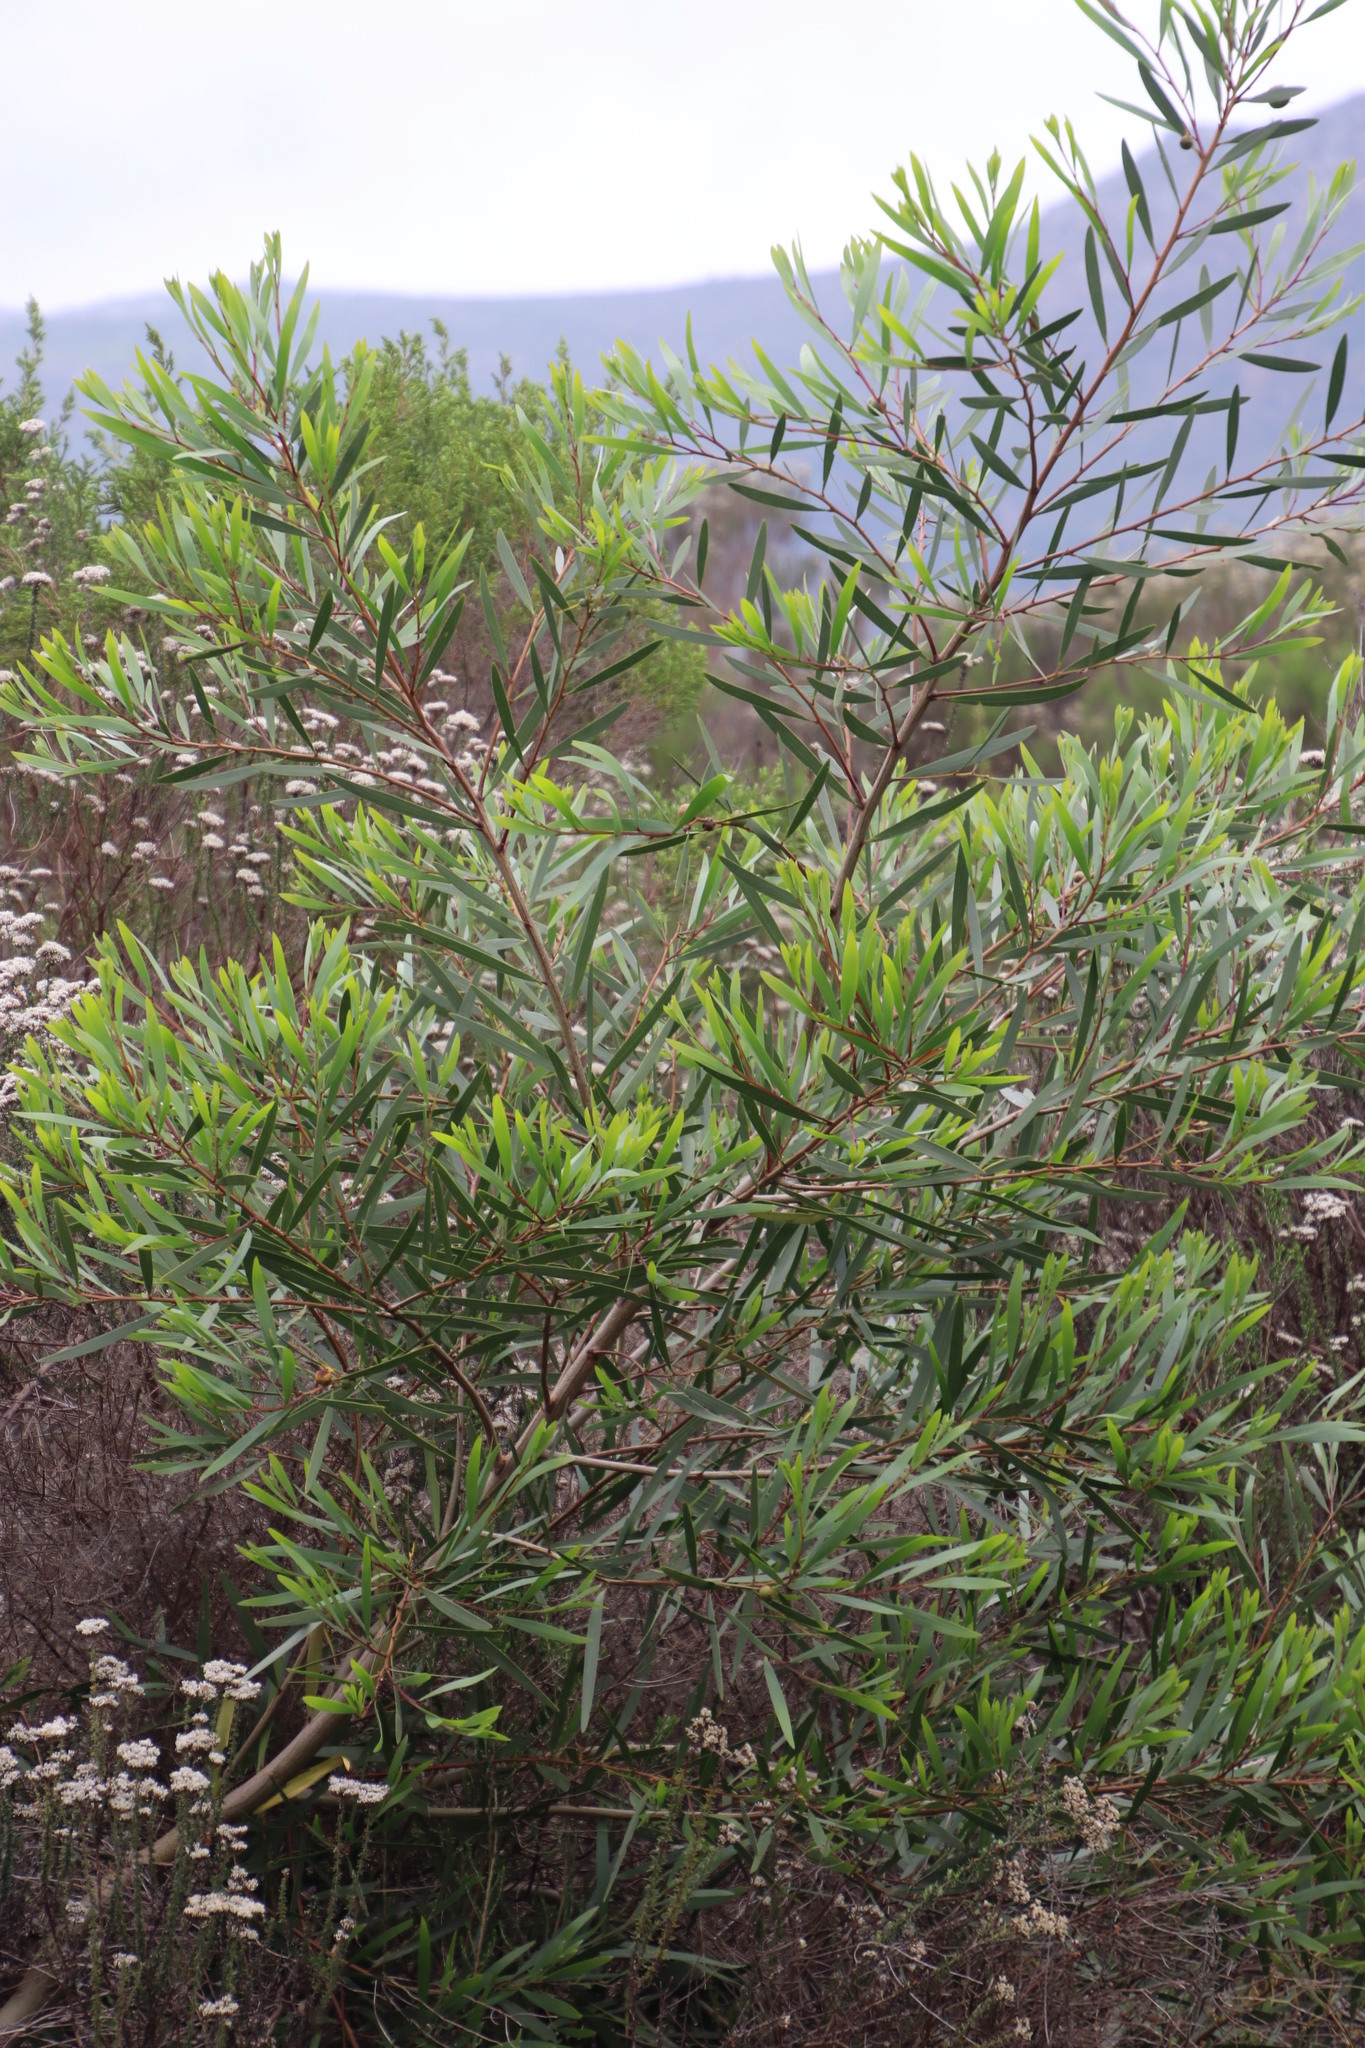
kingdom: Plantae
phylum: Tracheophyta
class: Magnoliopsida
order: Fabales
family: Fabaceae
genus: Acacia
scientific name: Acacia longifolia
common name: Sydney golden wattle
